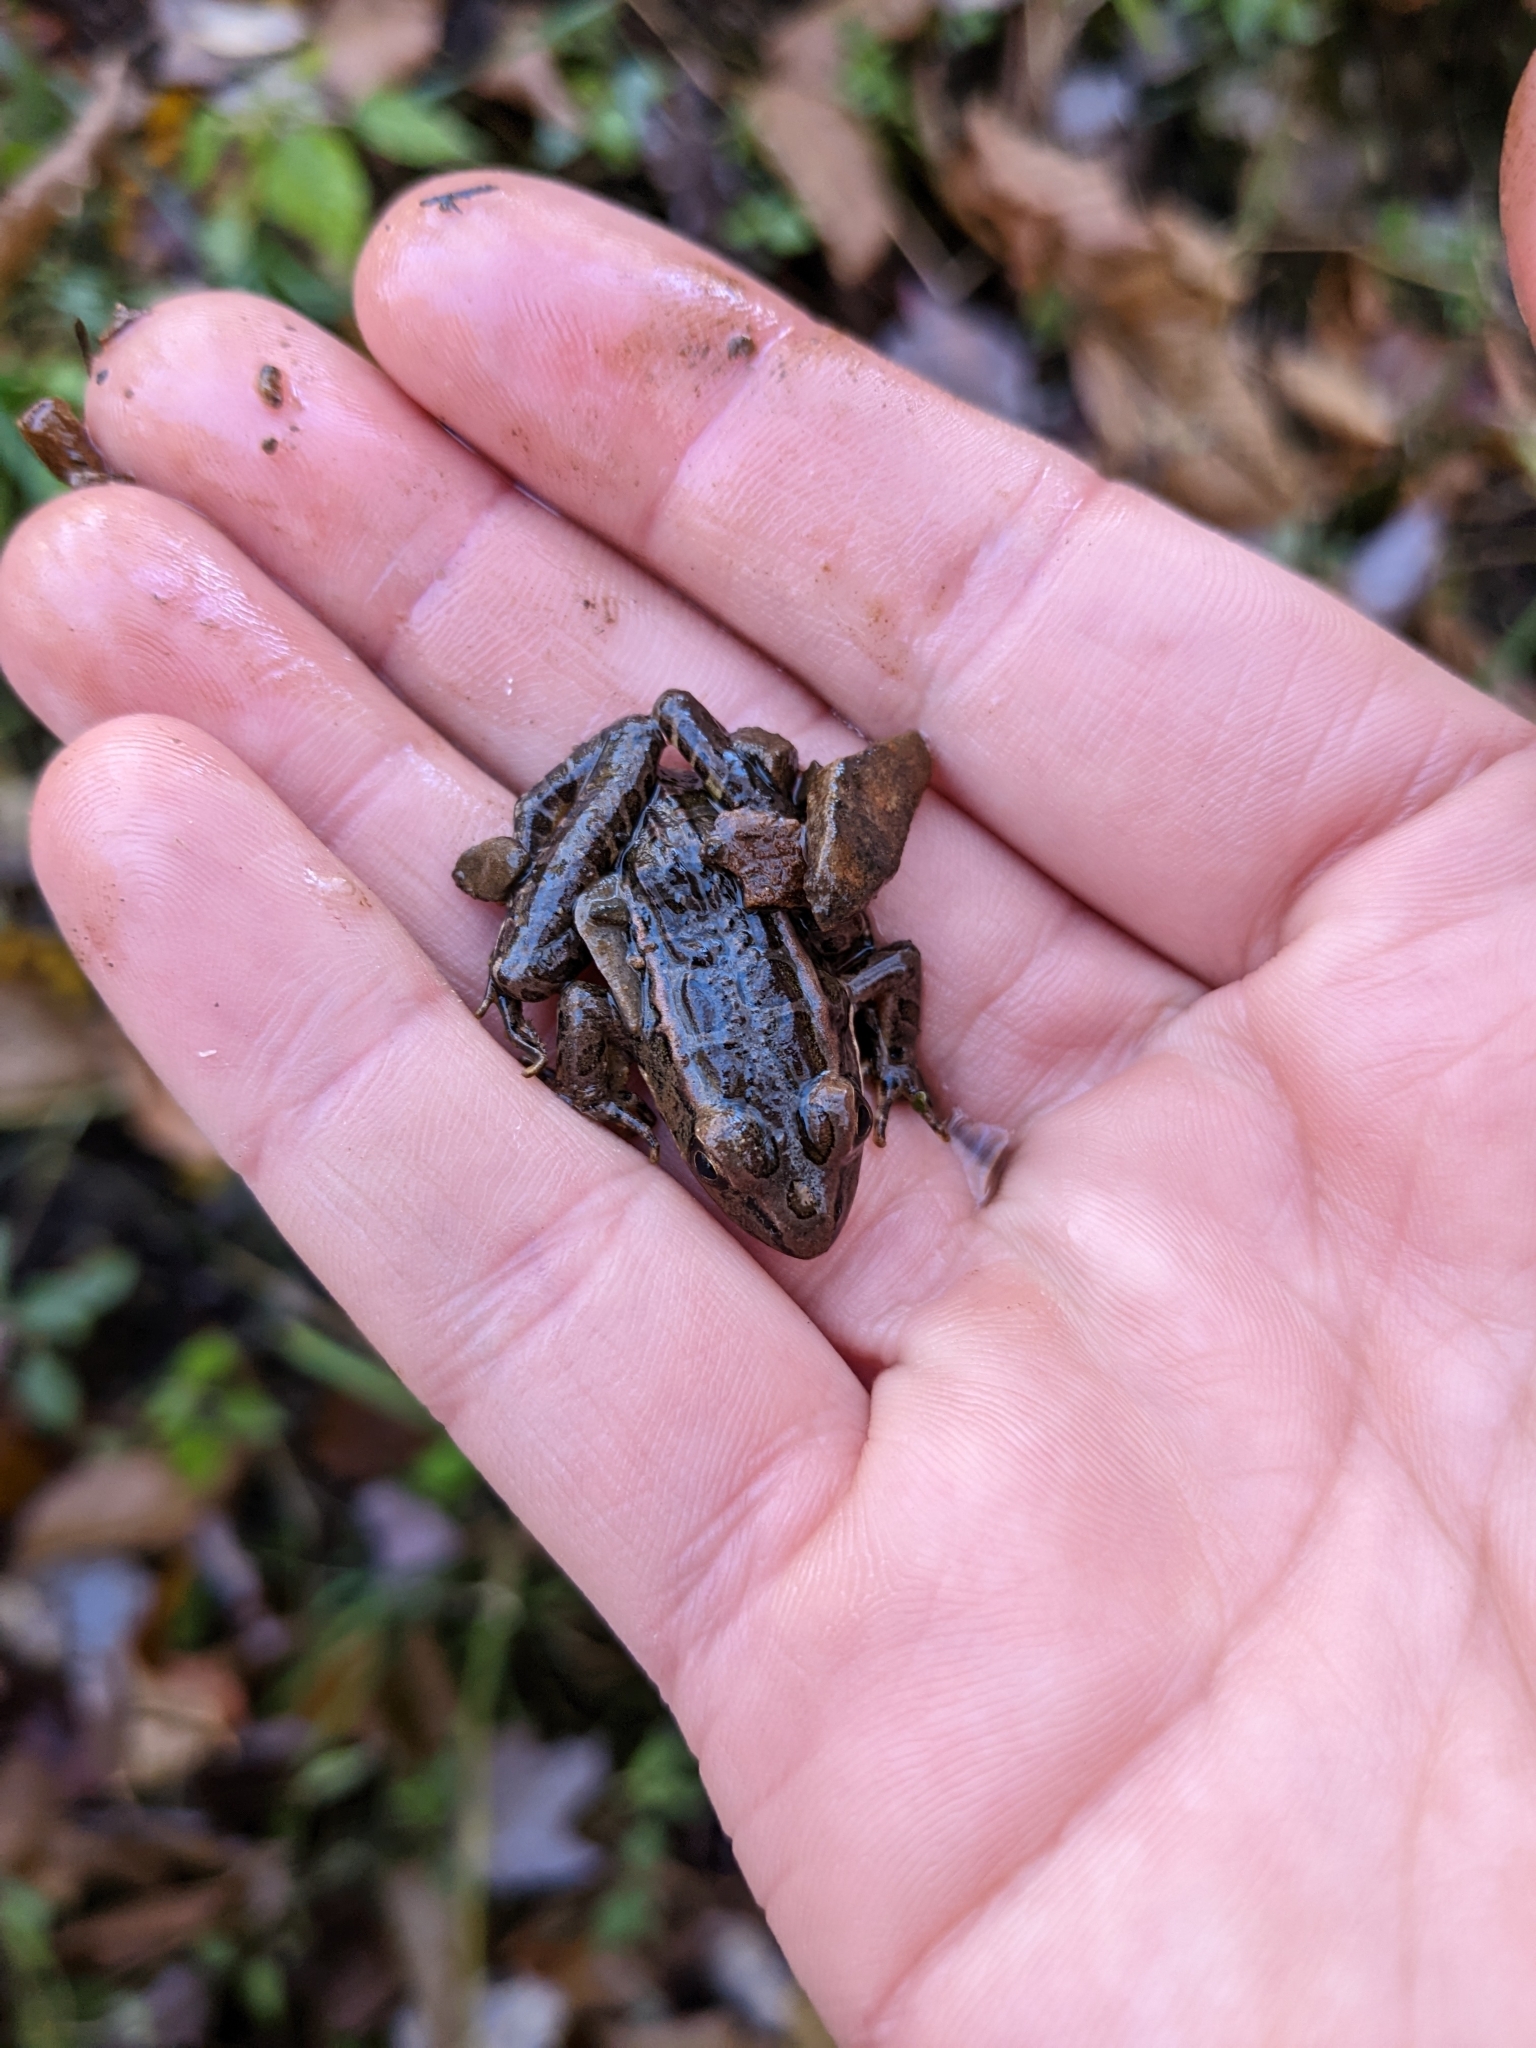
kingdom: Animalia
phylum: Chordata
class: Amphibia
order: Anura
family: Ranidae
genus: Lithobates
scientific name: Lithobates palustris
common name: Pickerel frog
